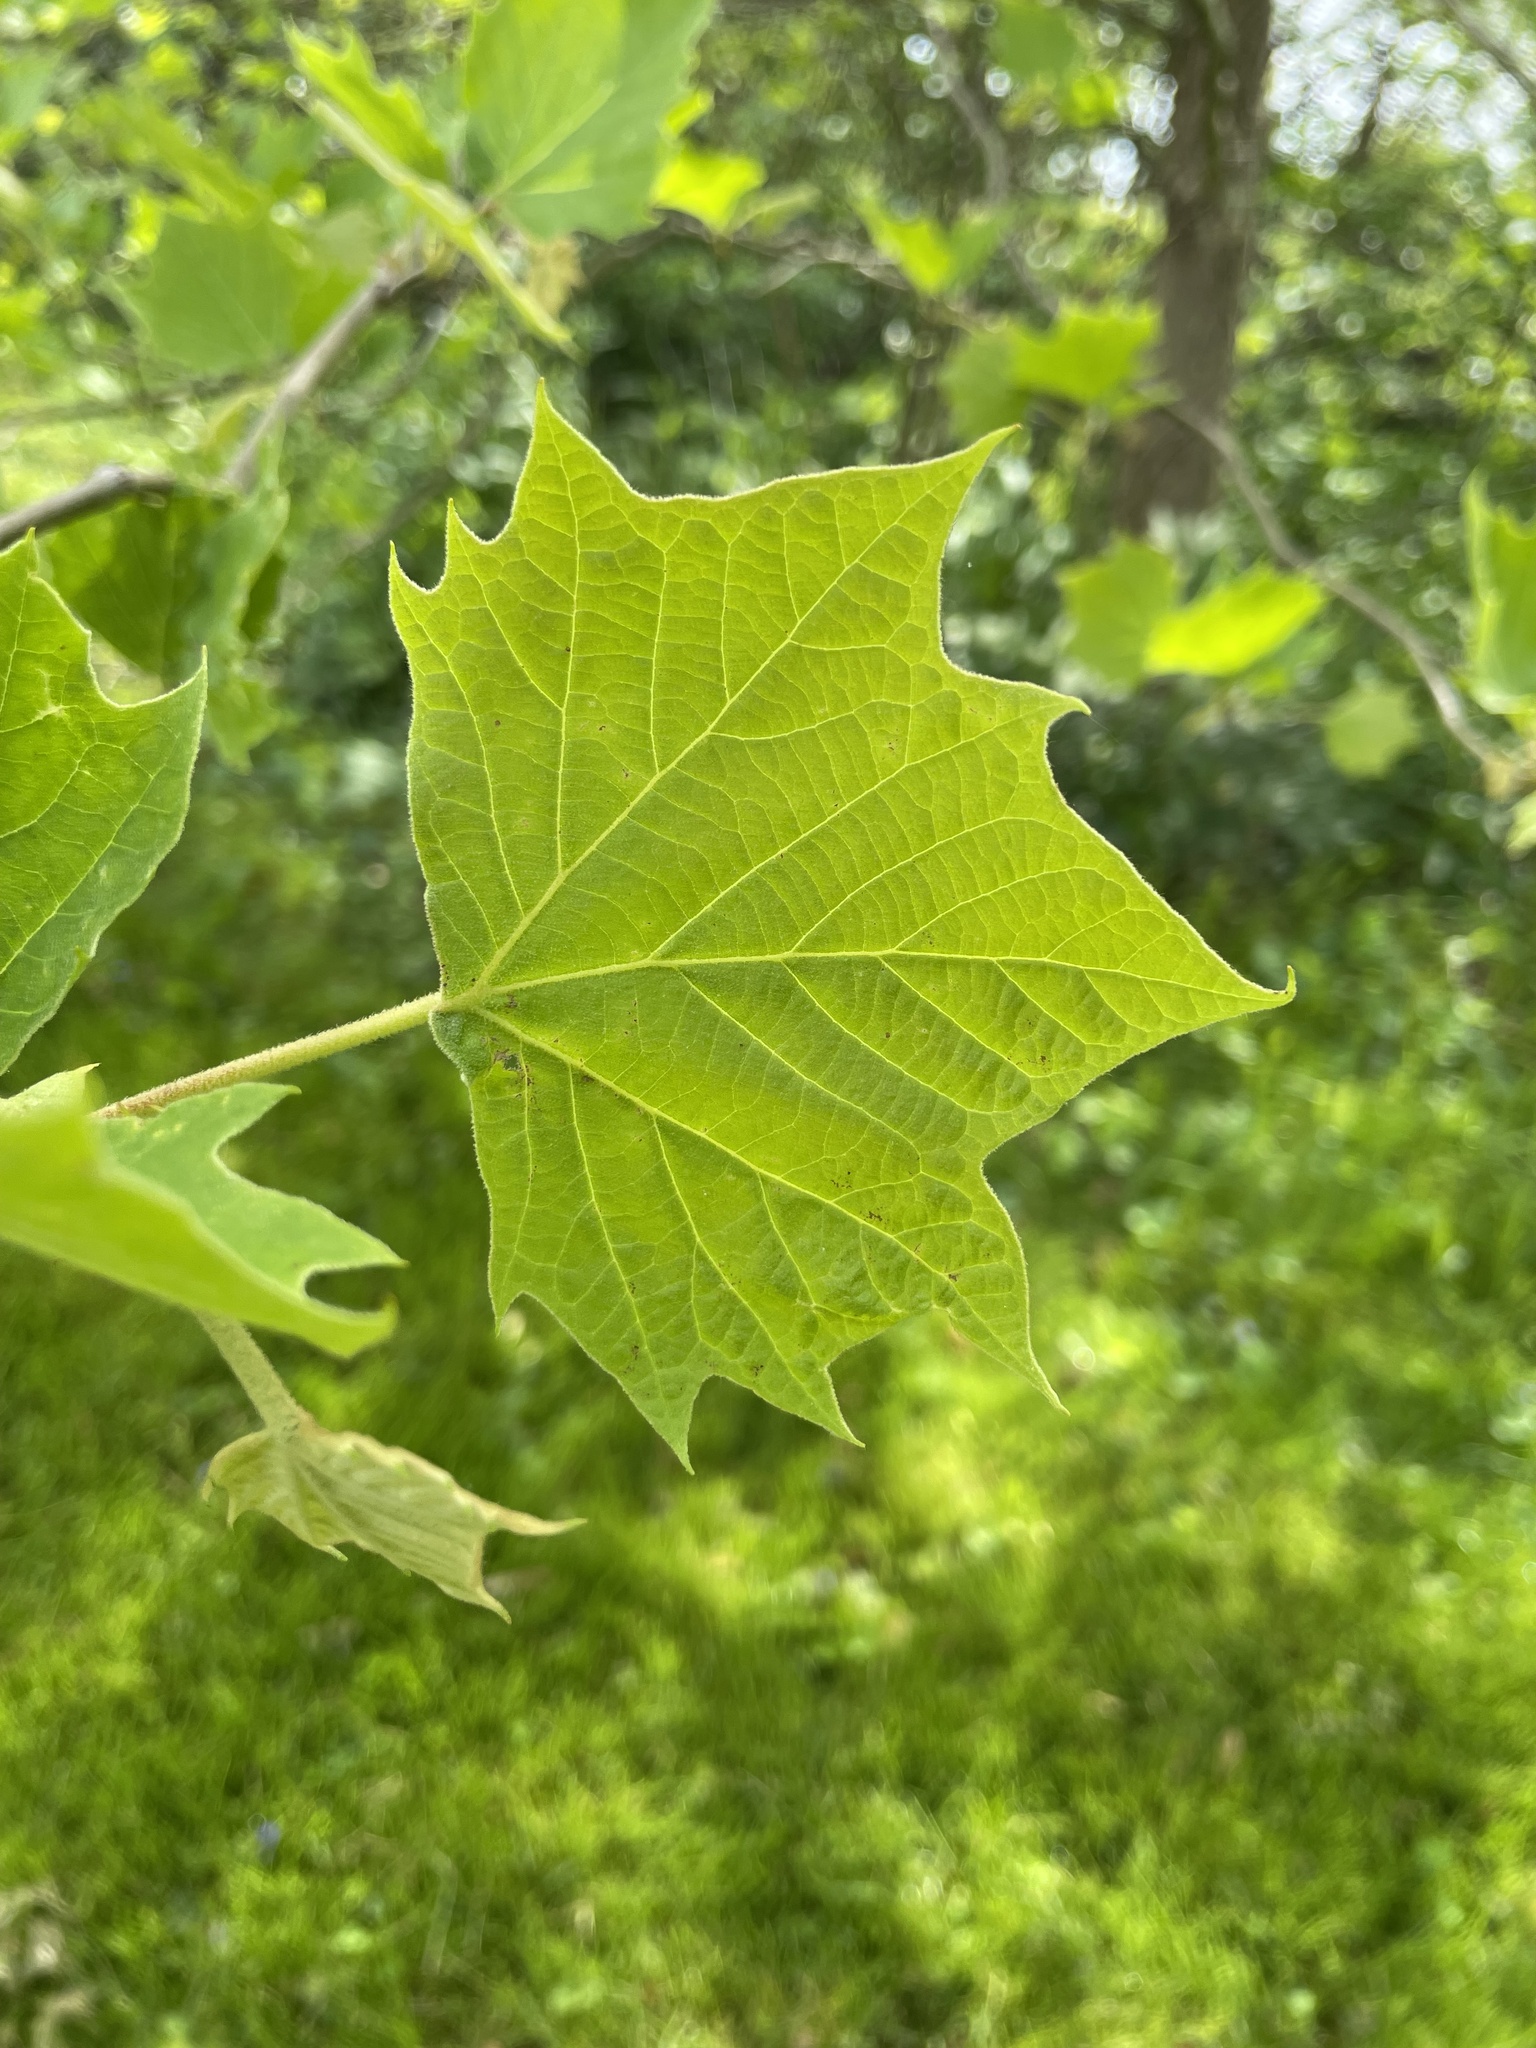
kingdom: Plantae
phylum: Tracheophyta
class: Magnoliopsida
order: Proteales
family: Platanaceae
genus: Platanus
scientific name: Platanus occidentalis
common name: American sycamore
